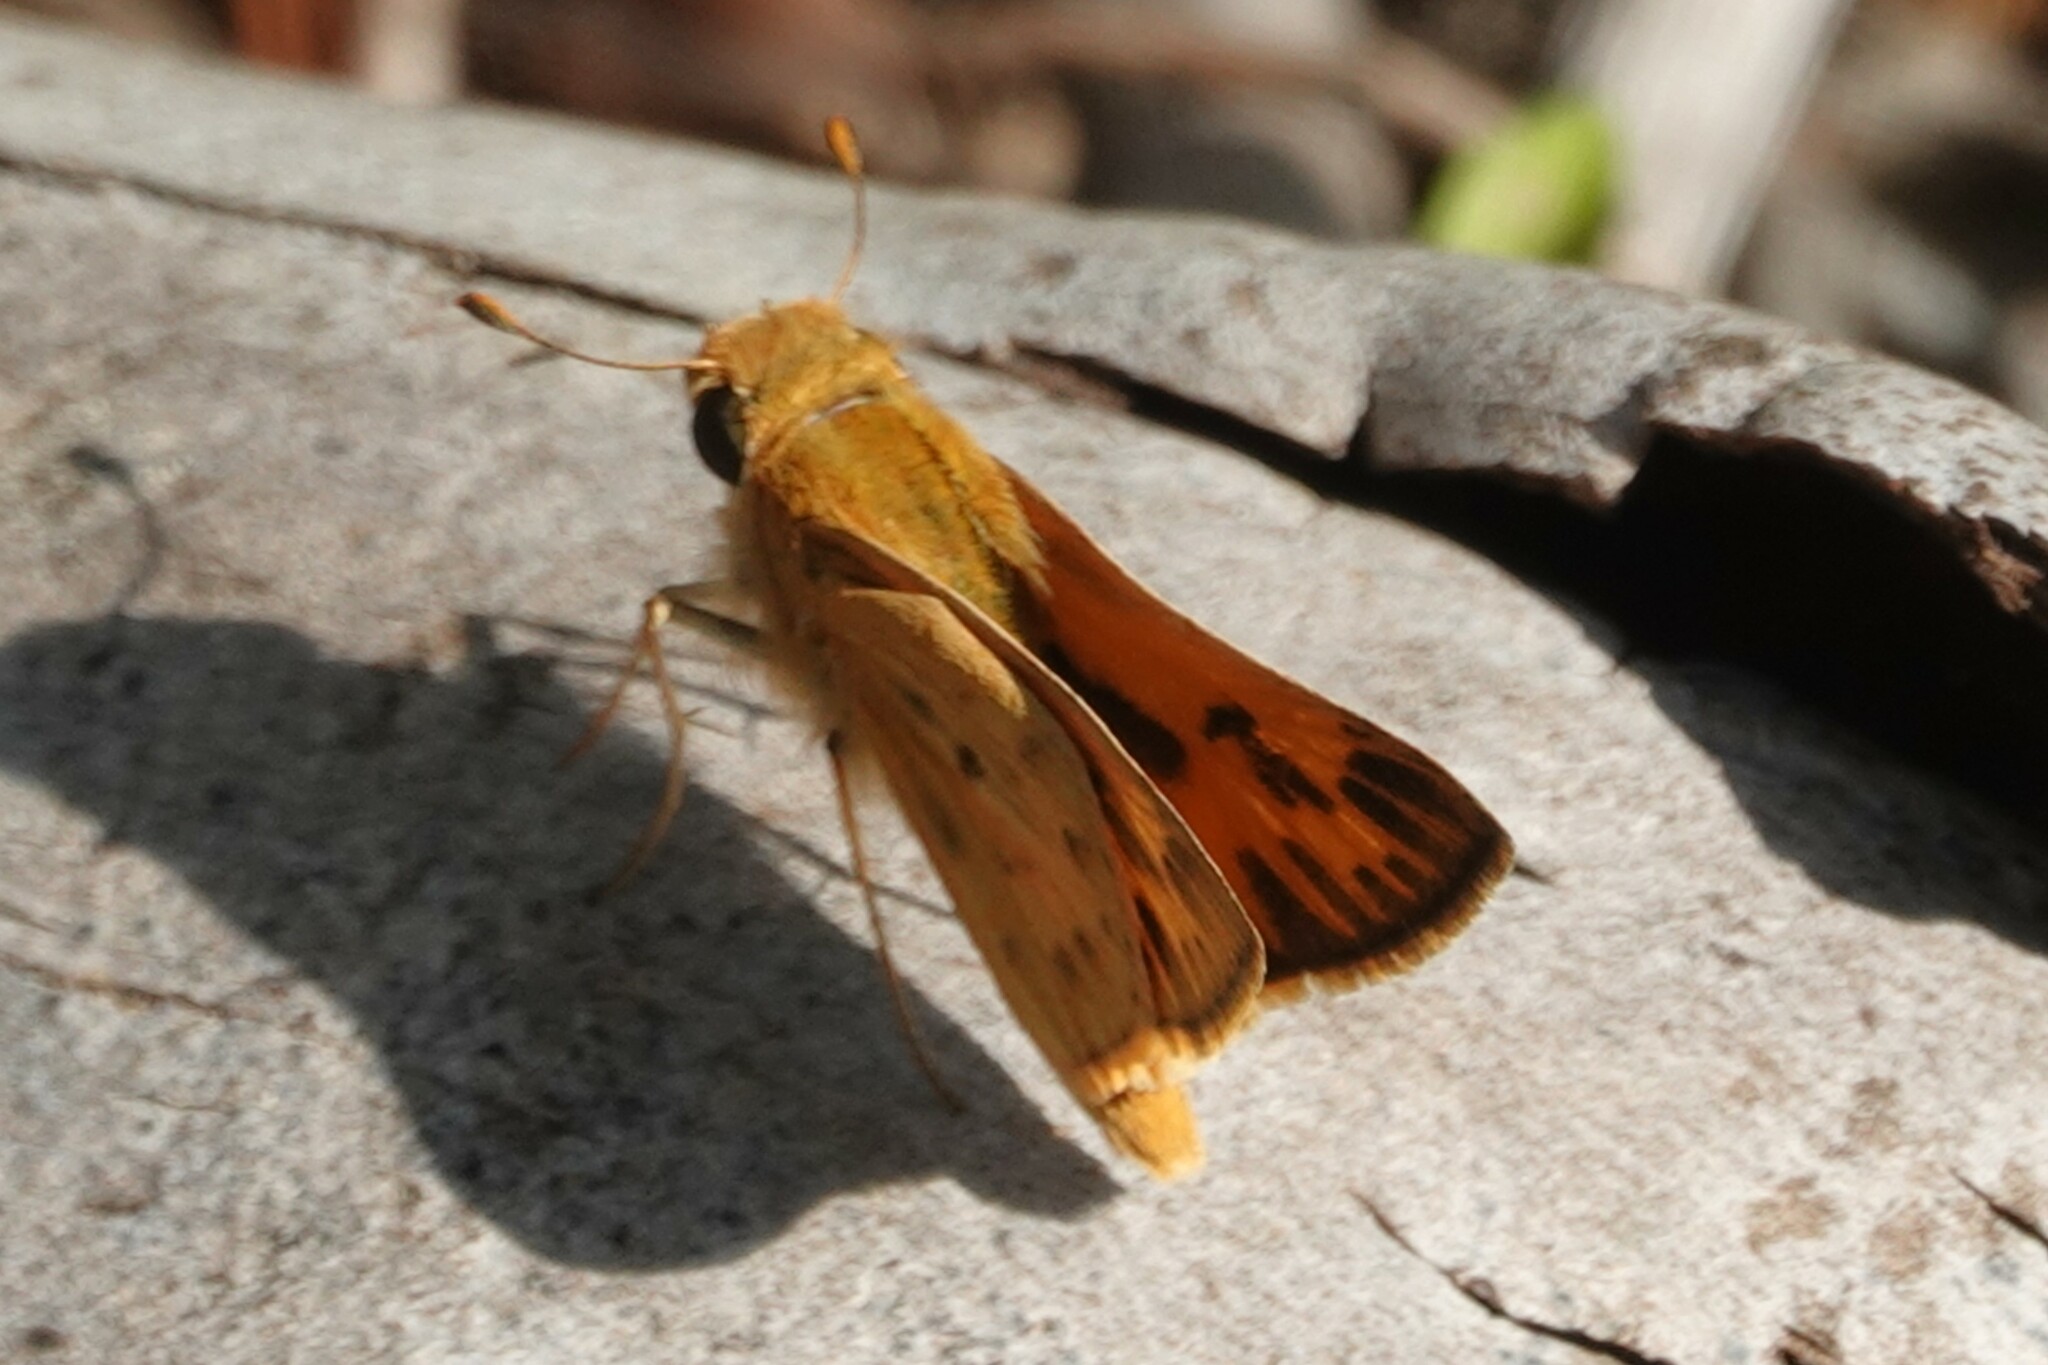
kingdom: Animalia
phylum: Arthropoda
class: Insecta
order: Lepidoptera
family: Hesperiidae
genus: Hylephila
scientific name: Hylephila phyleus
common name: Fiery skipper
